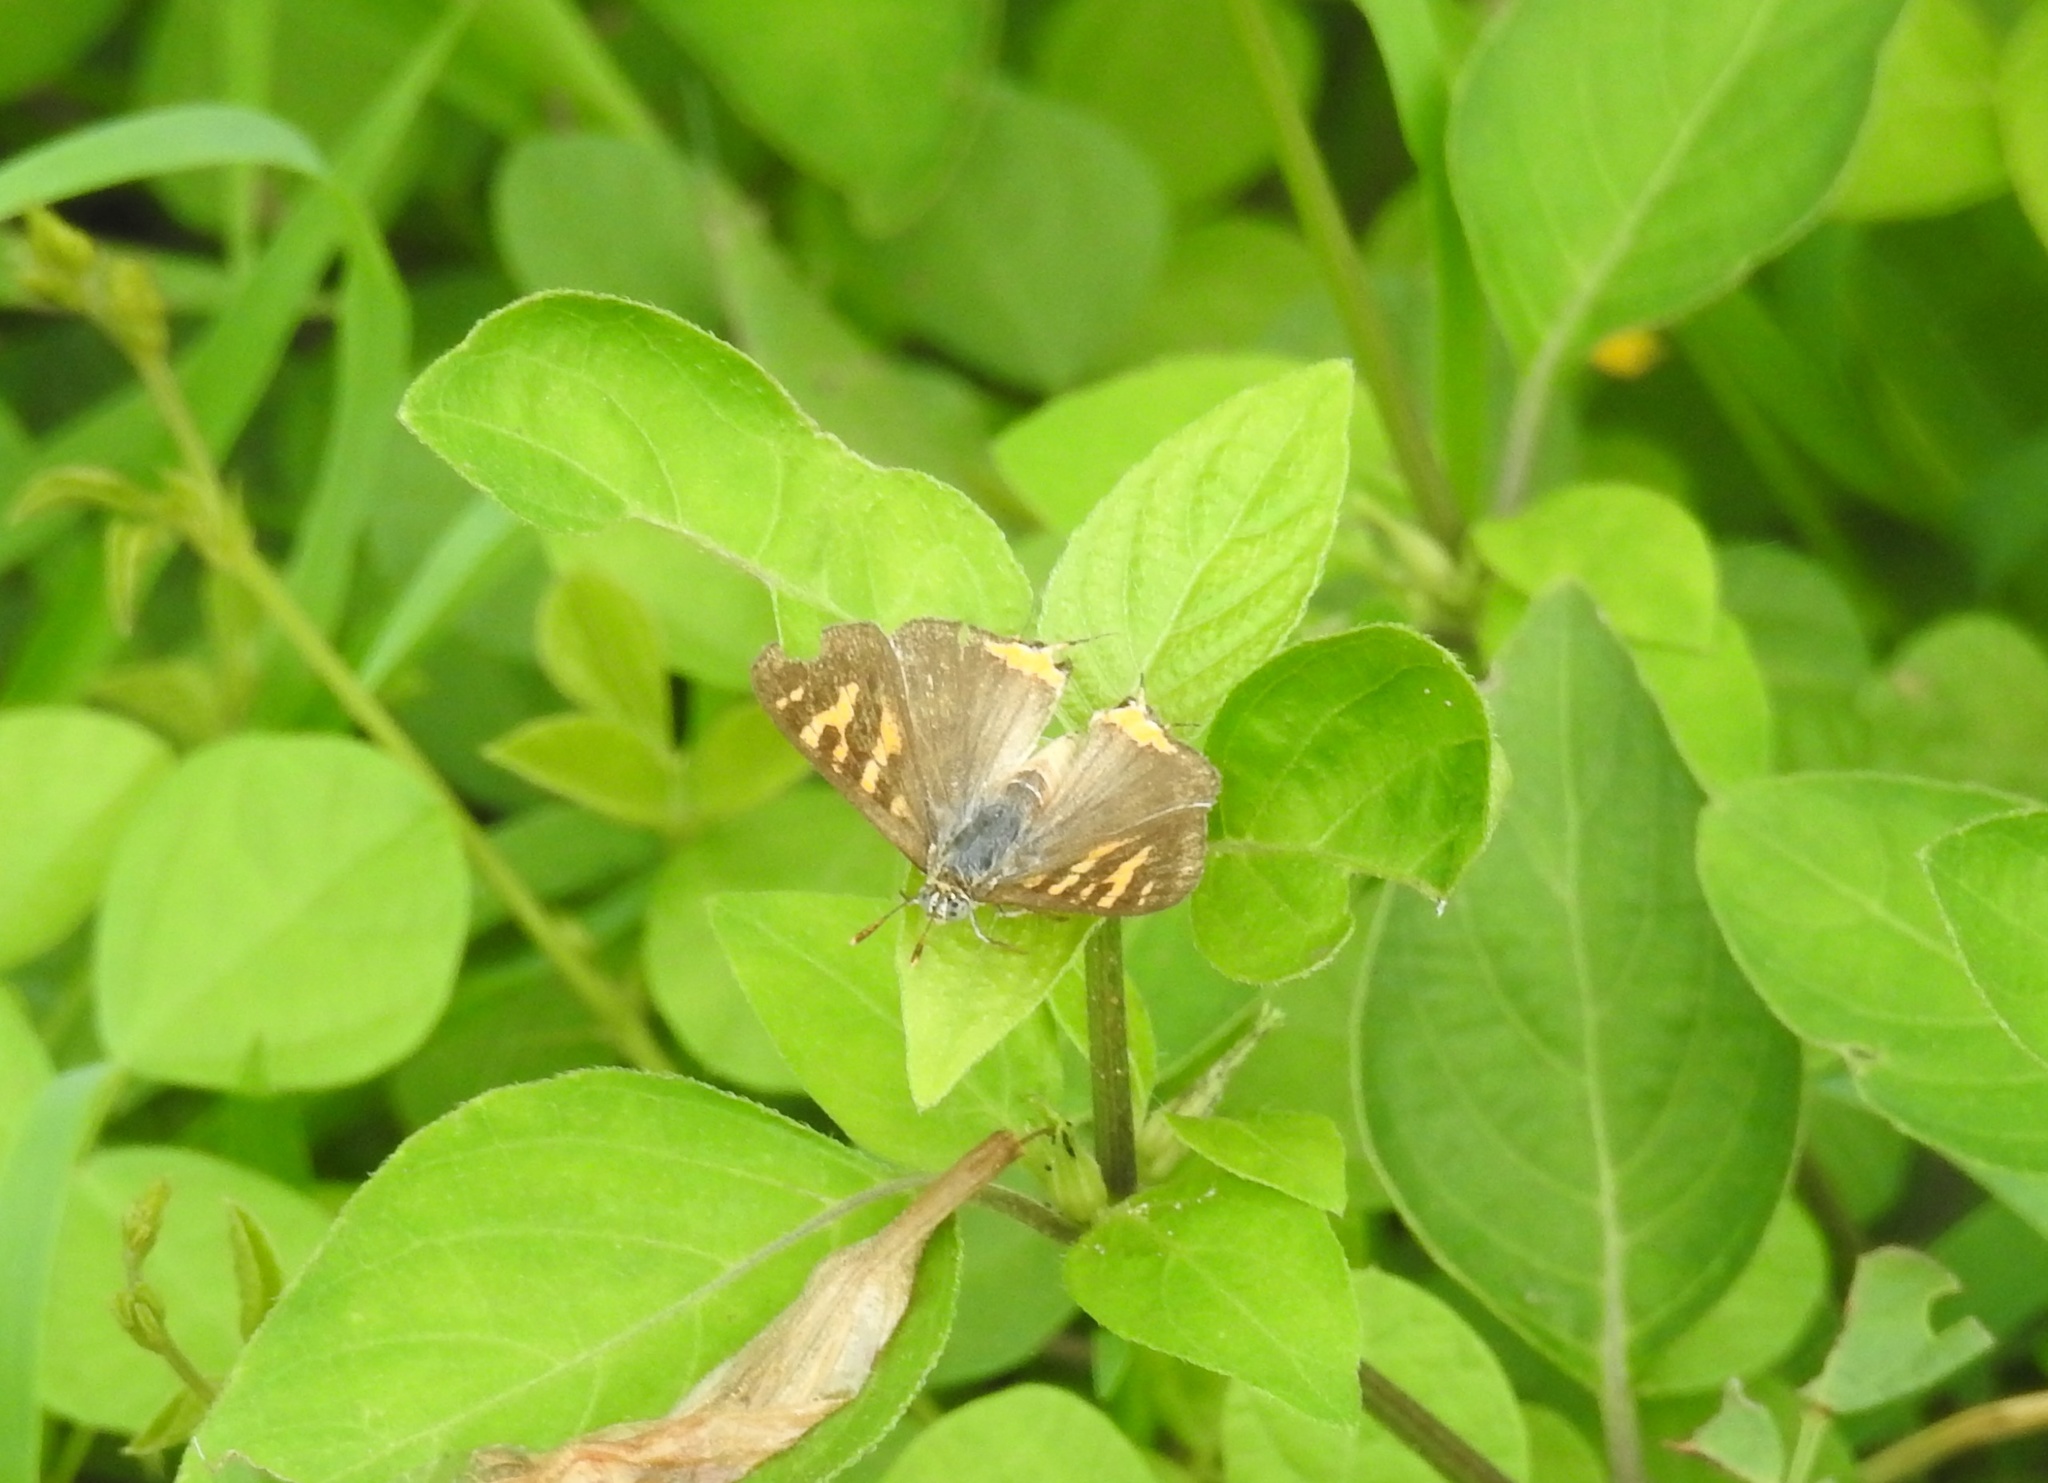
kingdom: Animalia
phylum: Arthropoda
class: Insecta
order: Lepidoptera
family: Lycaenidae
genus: Cigaritis
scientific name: Cigaritis vulcanus
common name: Common silverline
